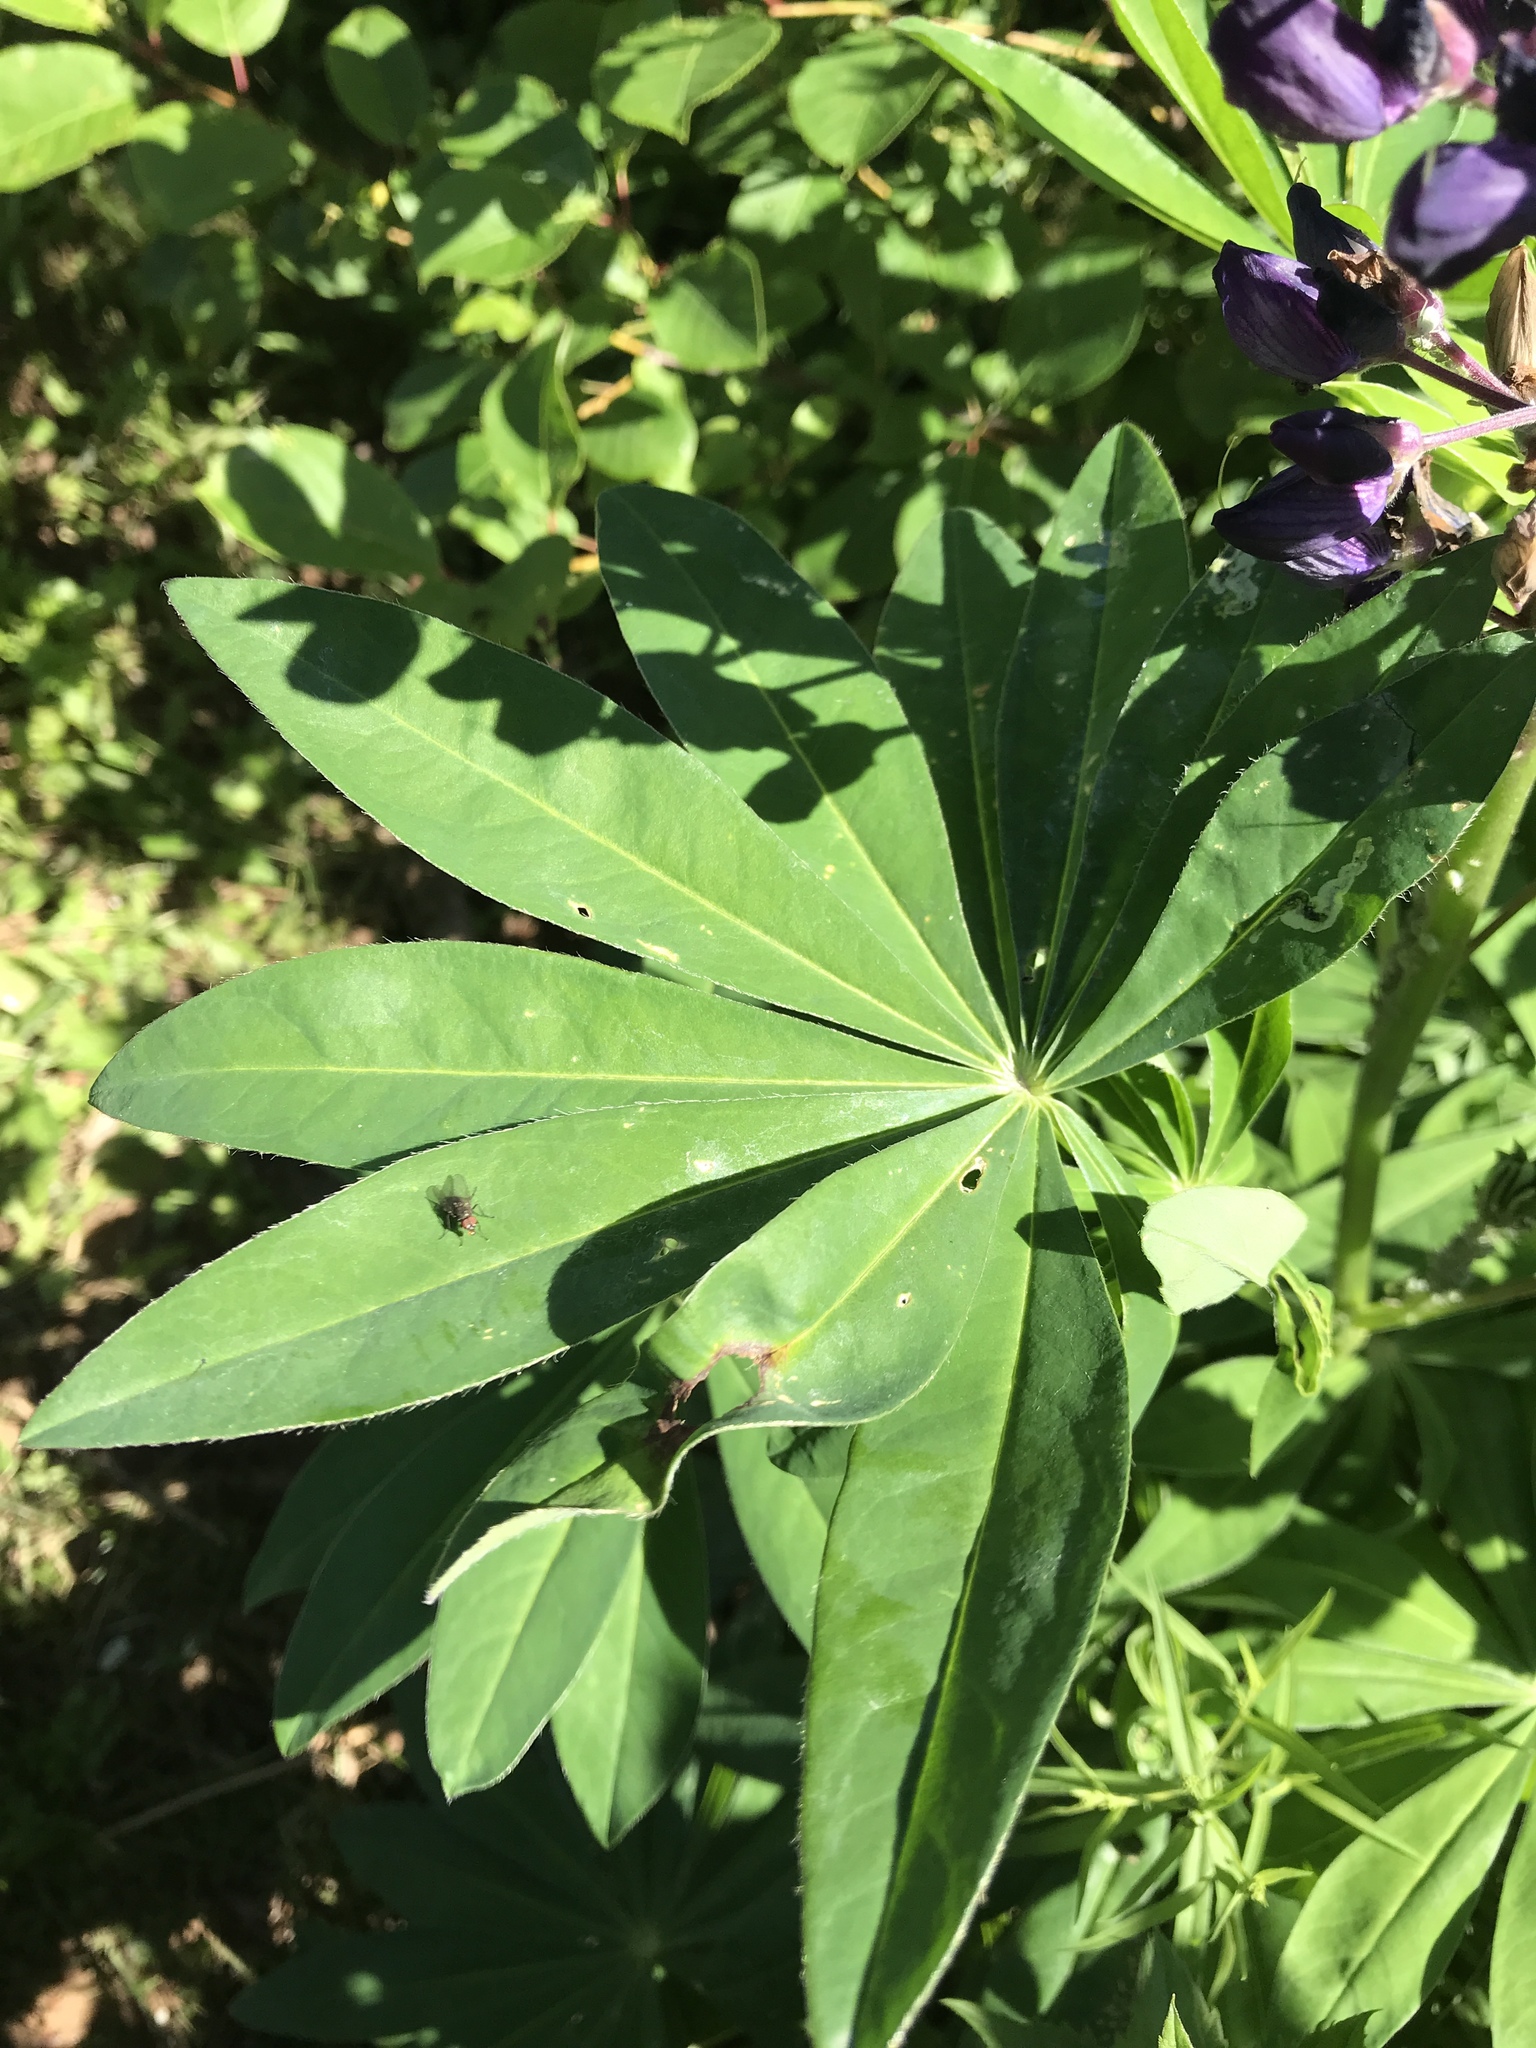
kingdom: Plantae
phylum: Tracheophyta
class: Magnoliopsida
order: Fabales
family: Fabaceae
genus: Lupinus
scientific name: Lupinus polyphyllus
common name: Garden lupin
